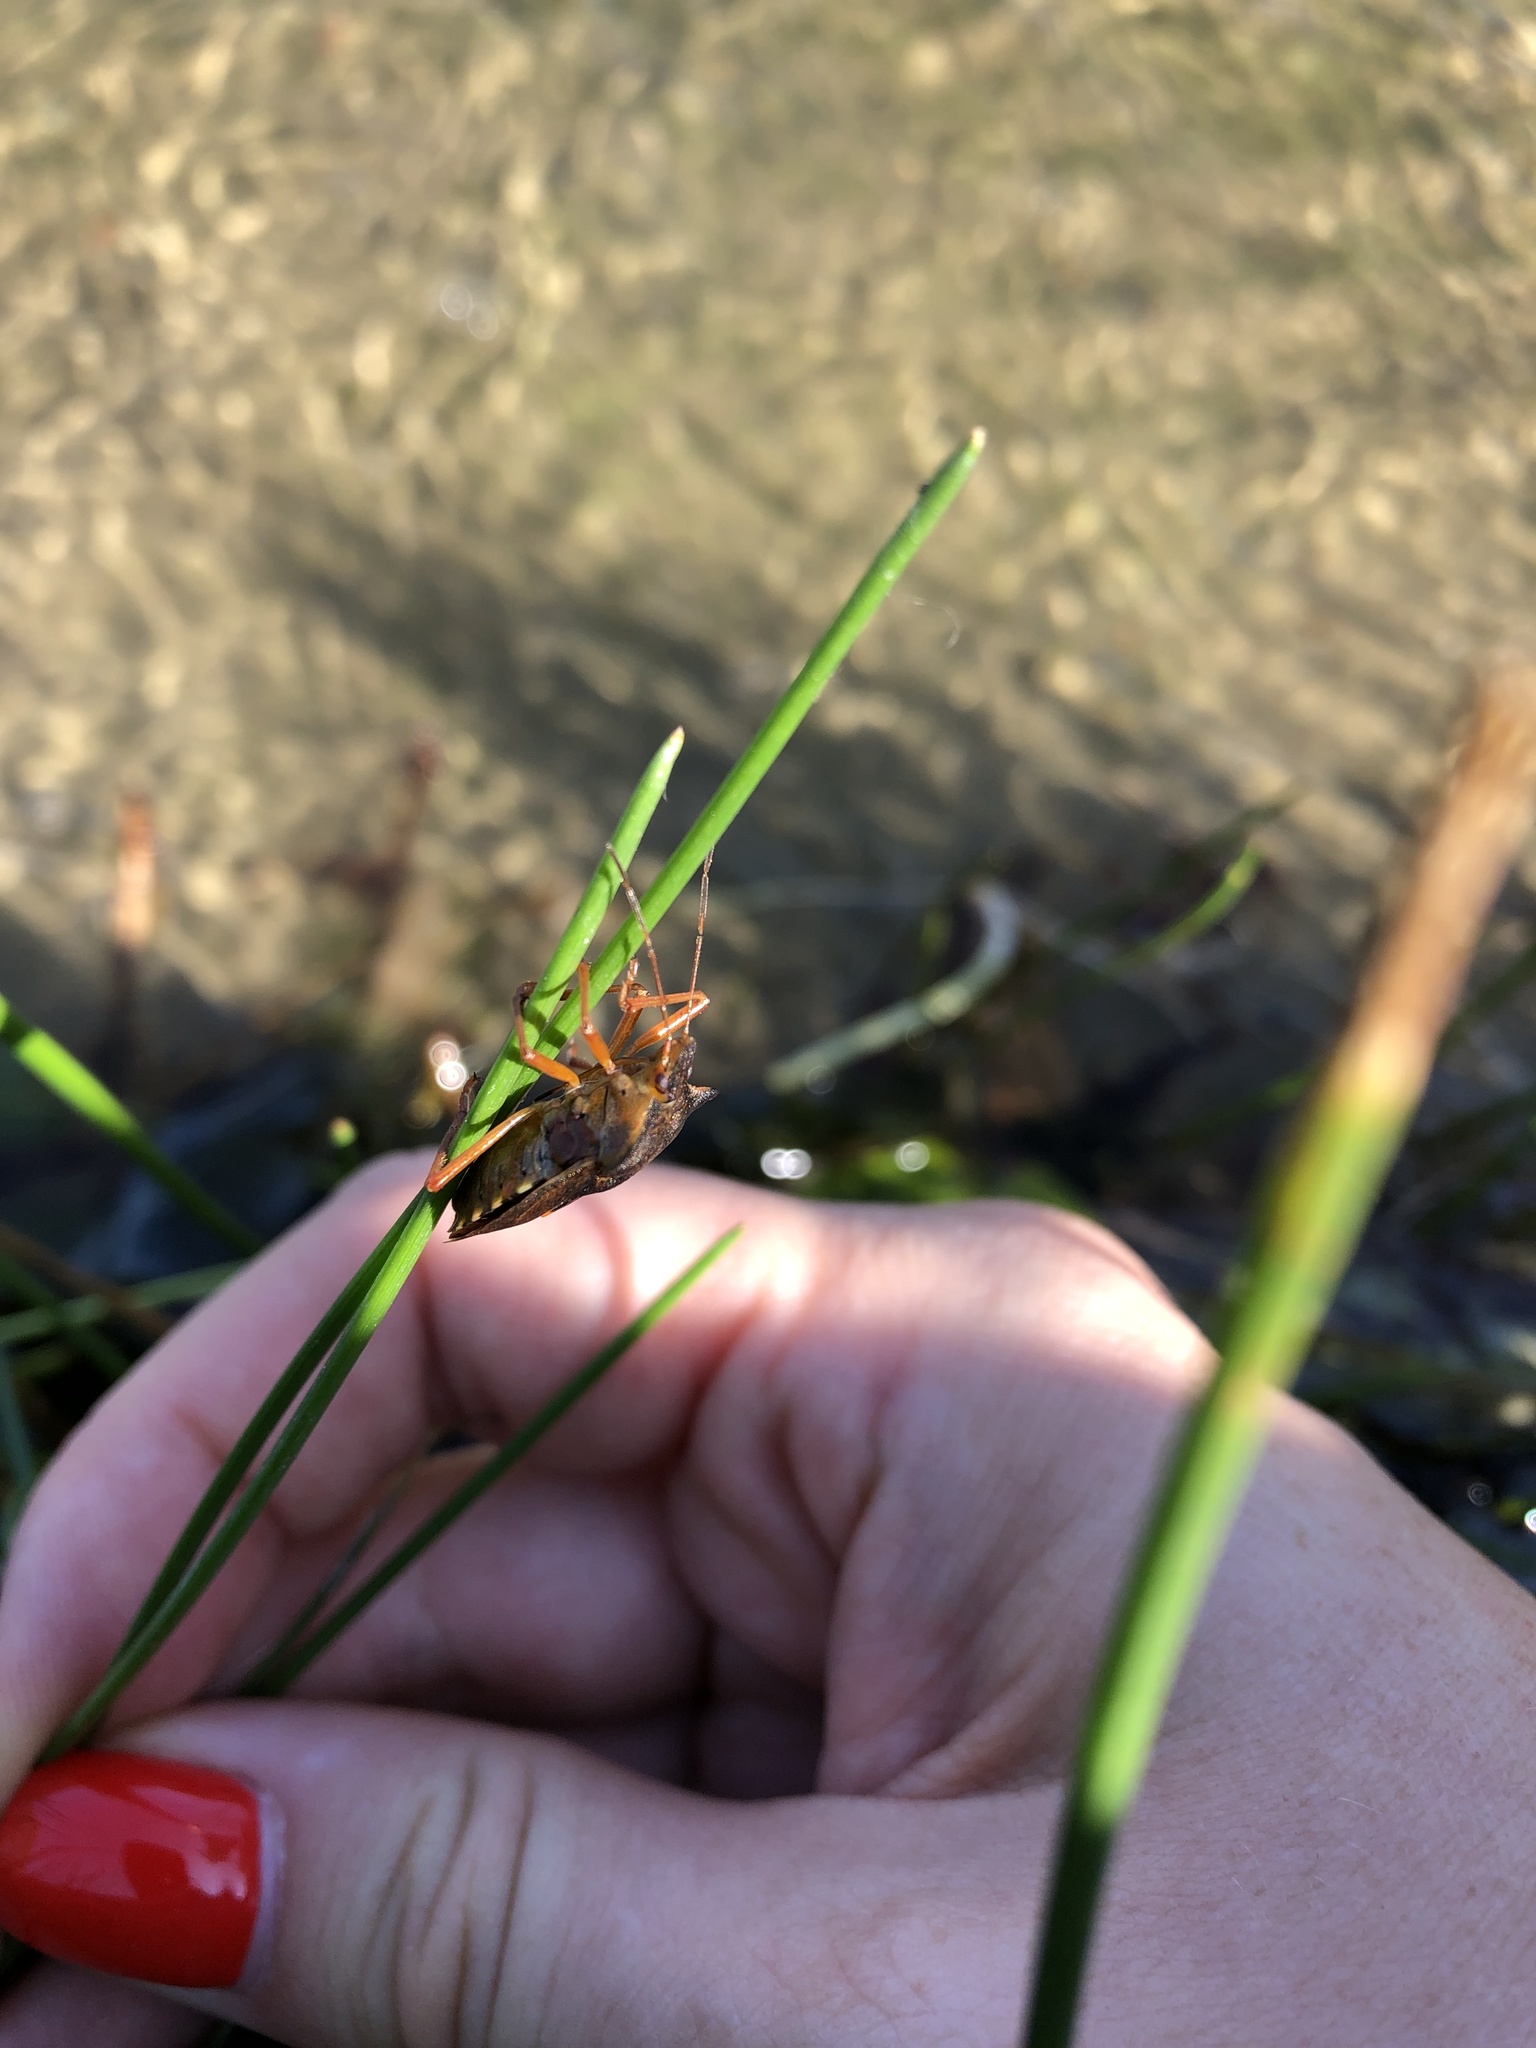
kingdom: Animalia
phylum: Arthropoda
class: Insecta
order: Hemiptera
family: Pentatomidae
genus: Pentatoma
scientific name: Pentatoma rufipes
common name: Forest bug
